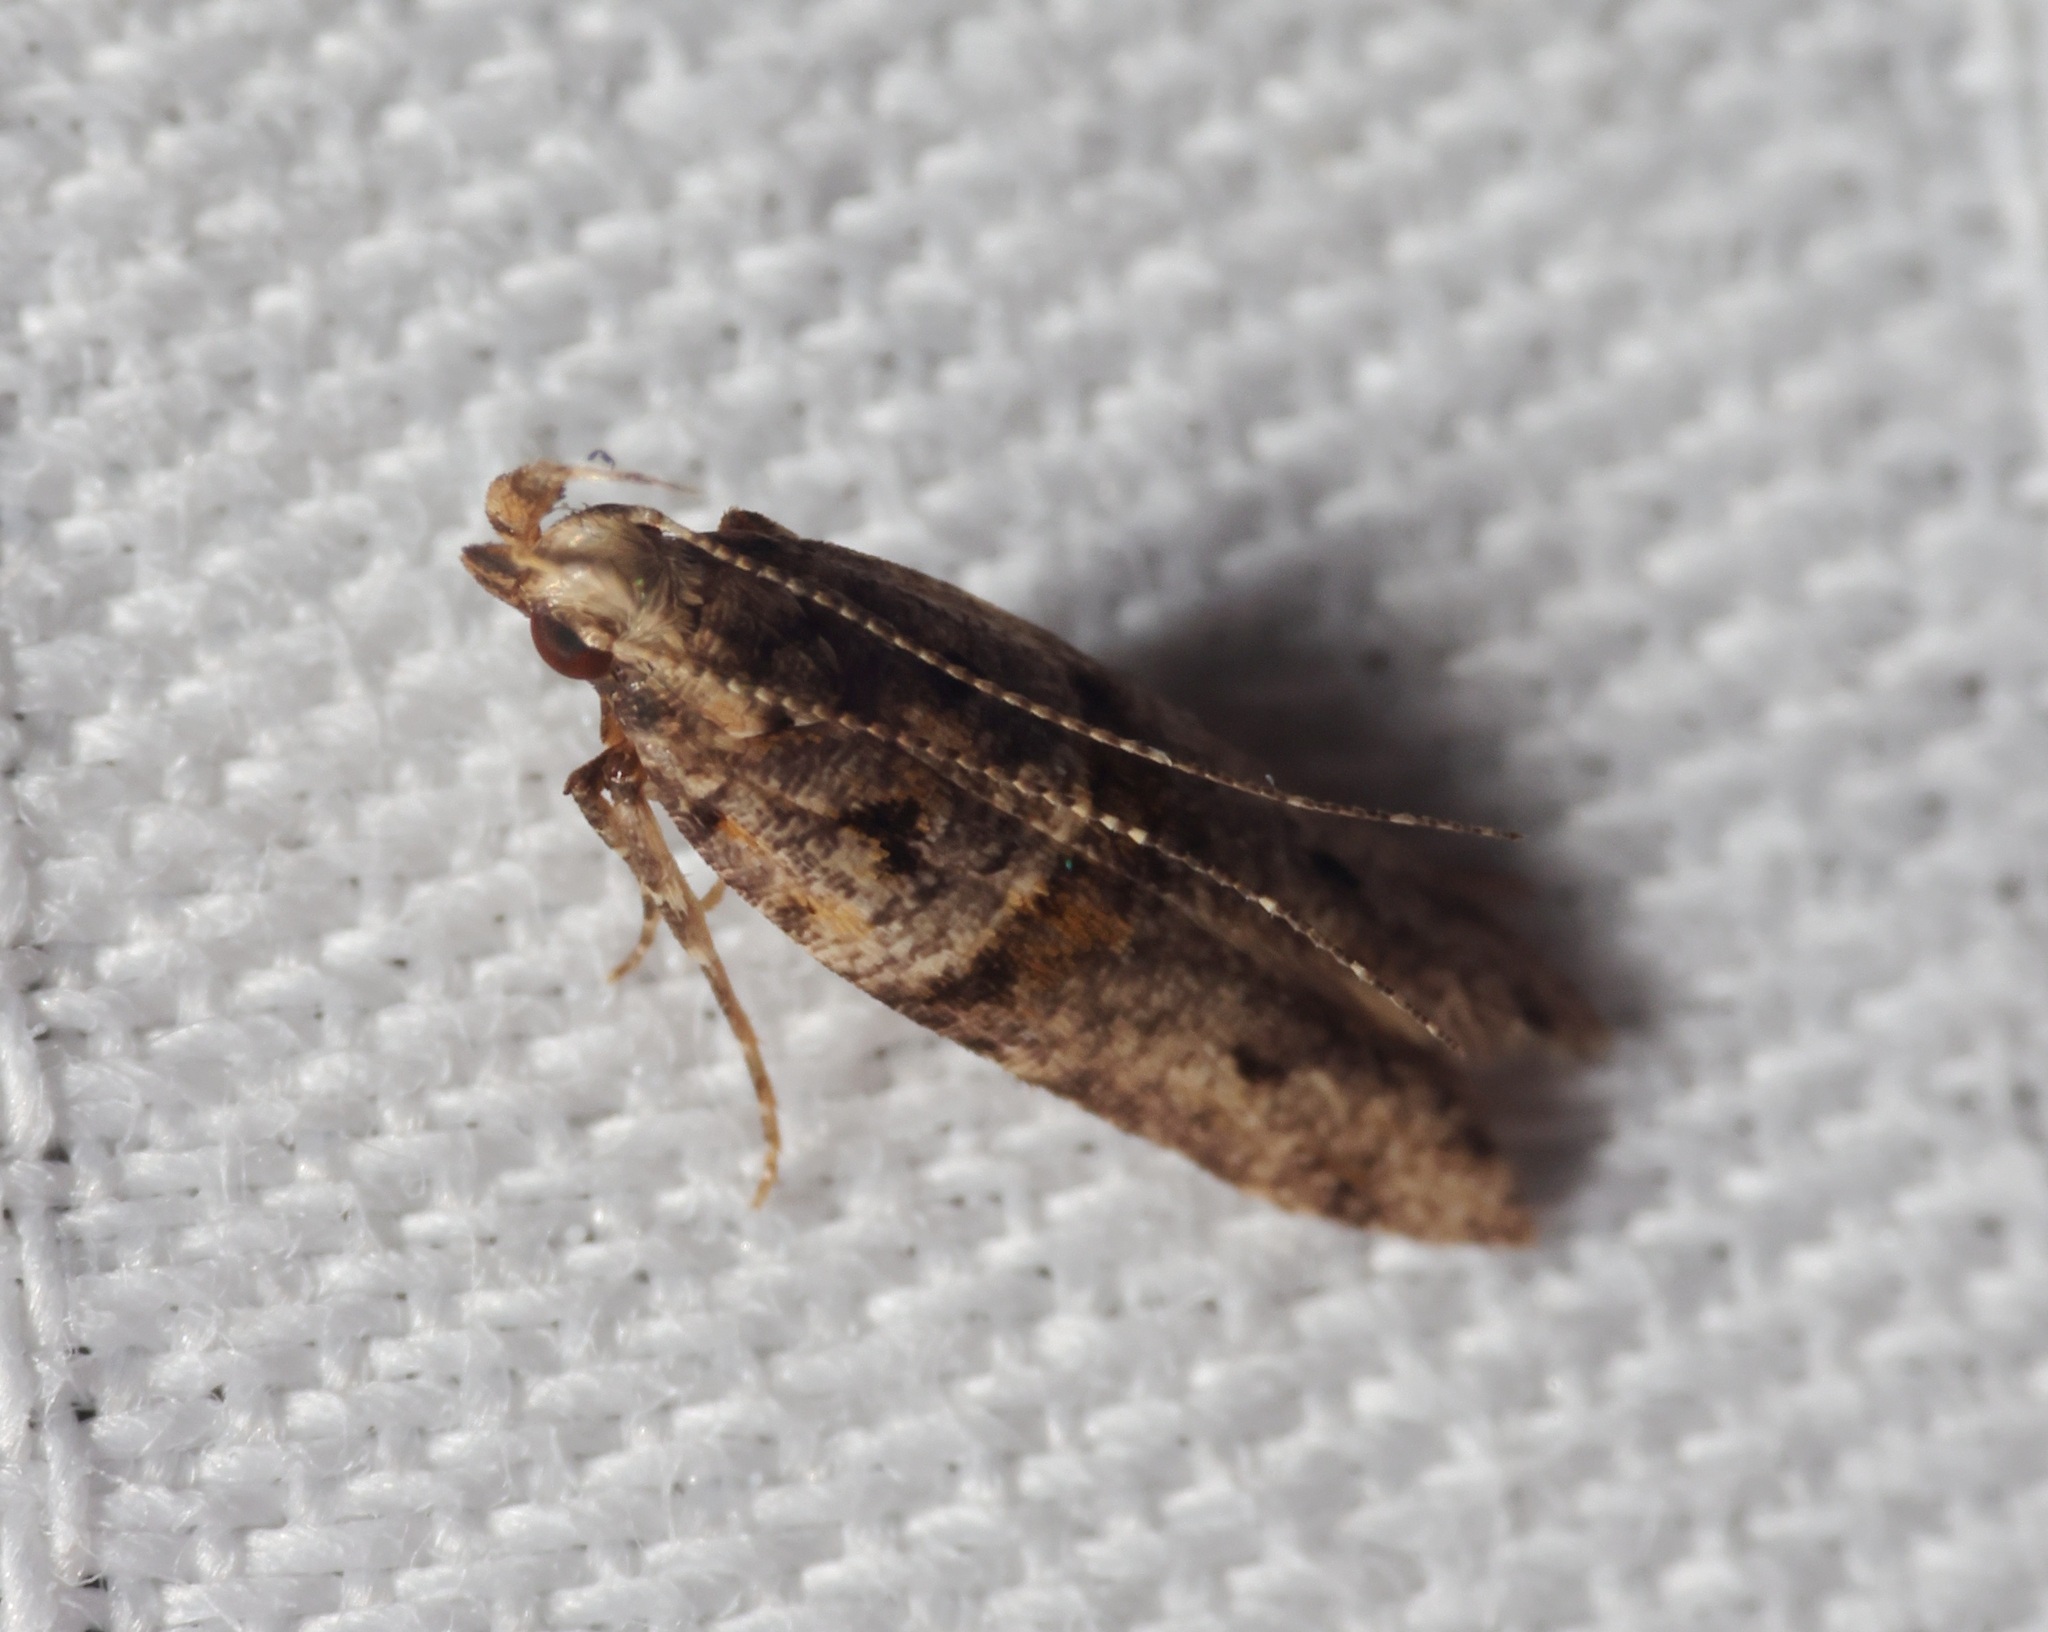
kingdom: Animalia
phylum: Arthropoda
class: Insecta
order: Lepidoptera
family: Gelechiidae
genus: Deltophora
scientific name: Deltophora polliniferens
